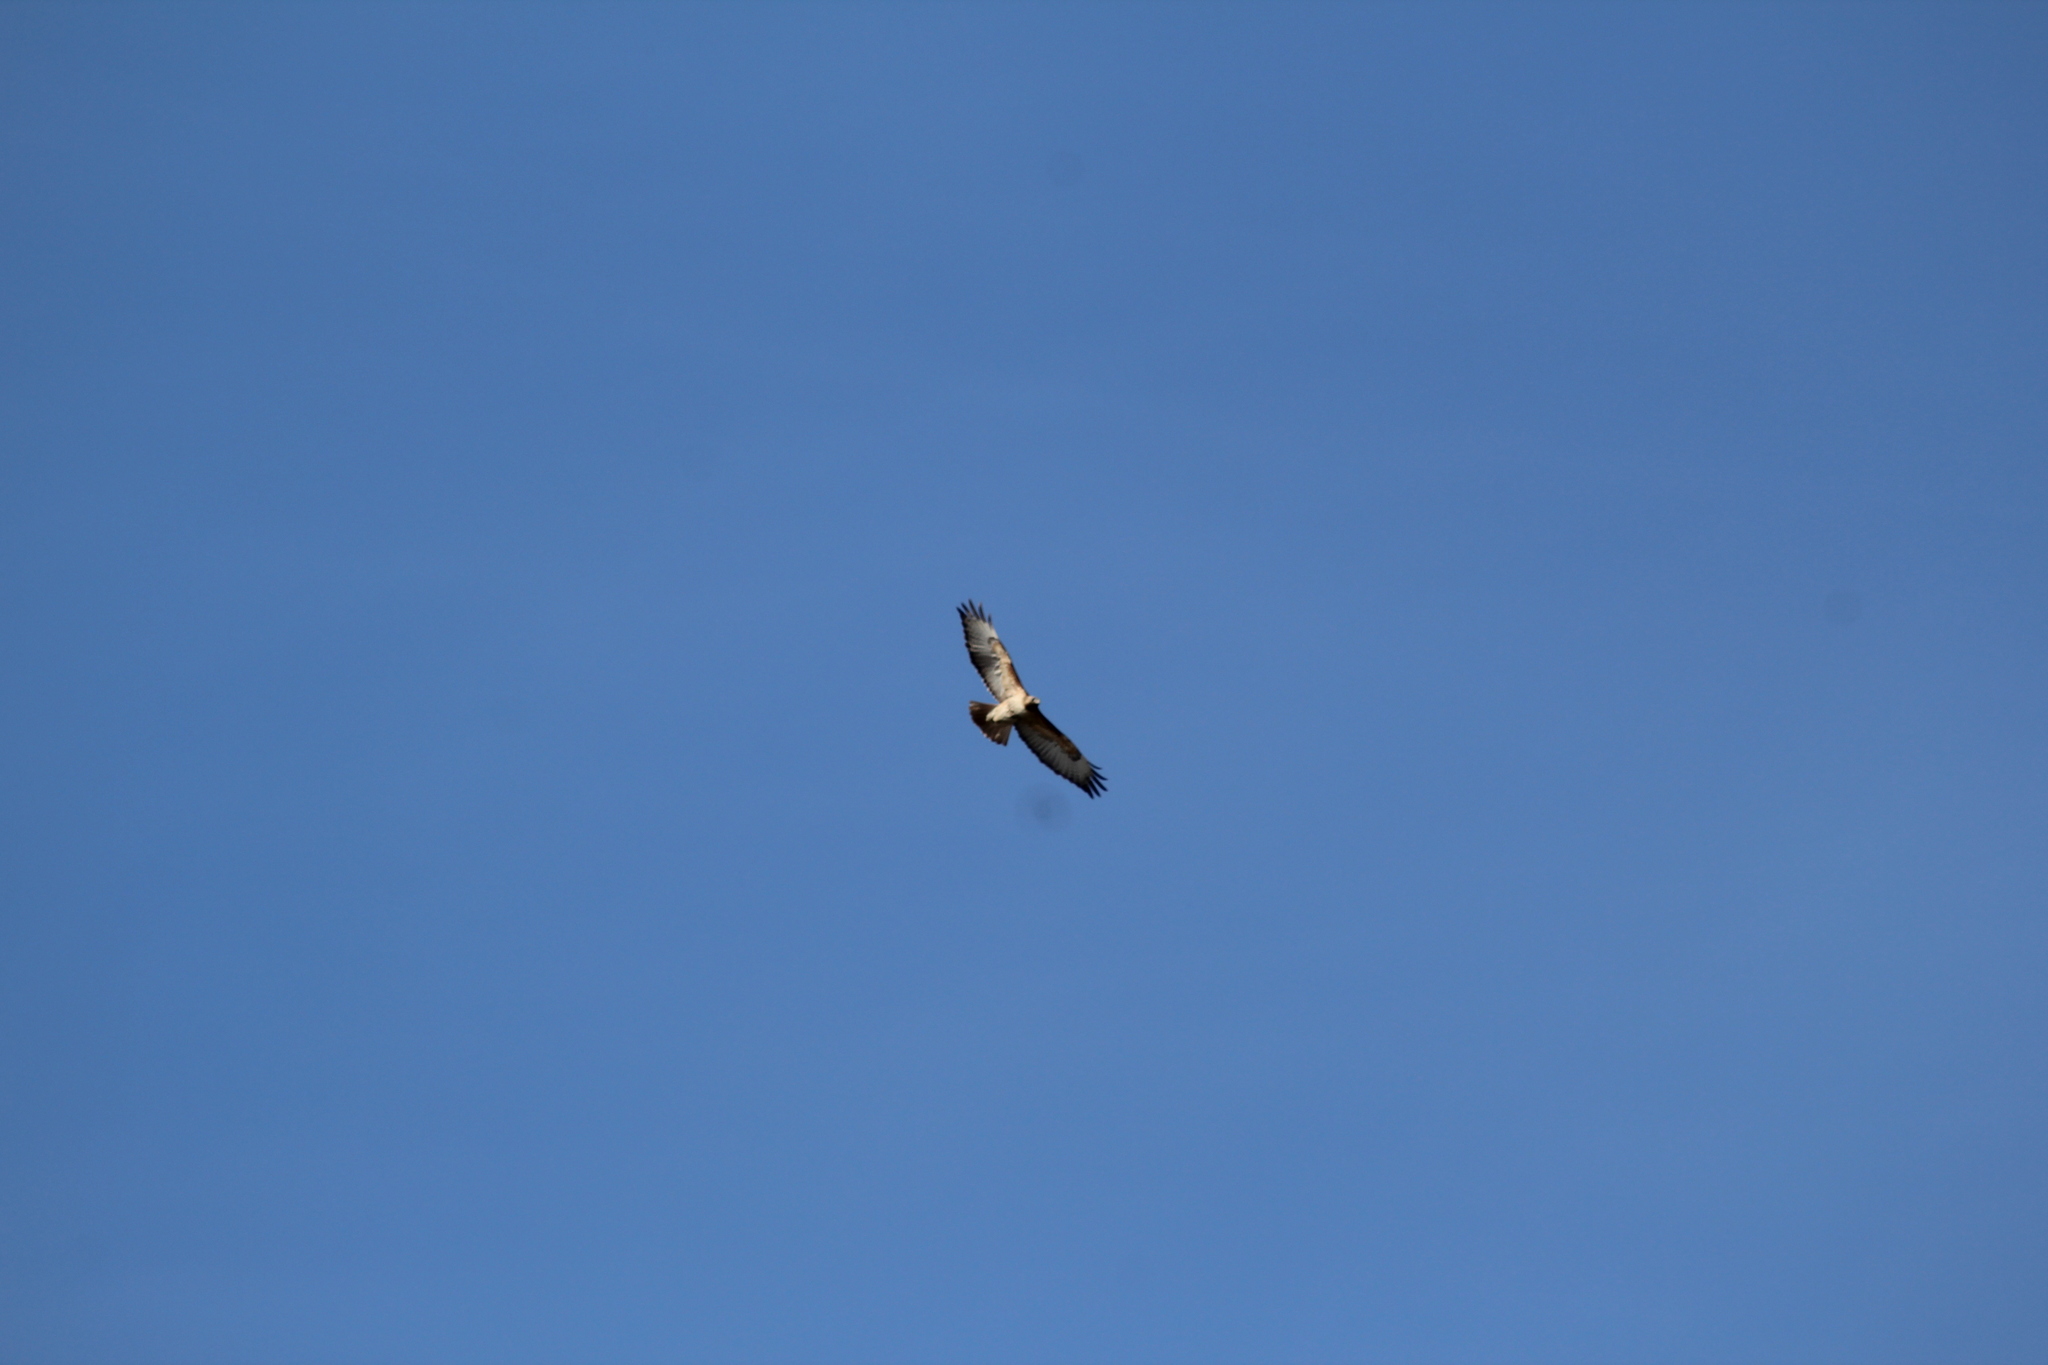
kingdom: Animalia
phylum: Chordata
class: Aves
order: Accipitriformes
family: Accipitridae
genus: Buteo
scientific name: Buteo jamaicensis
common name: Red-tailed hawk
